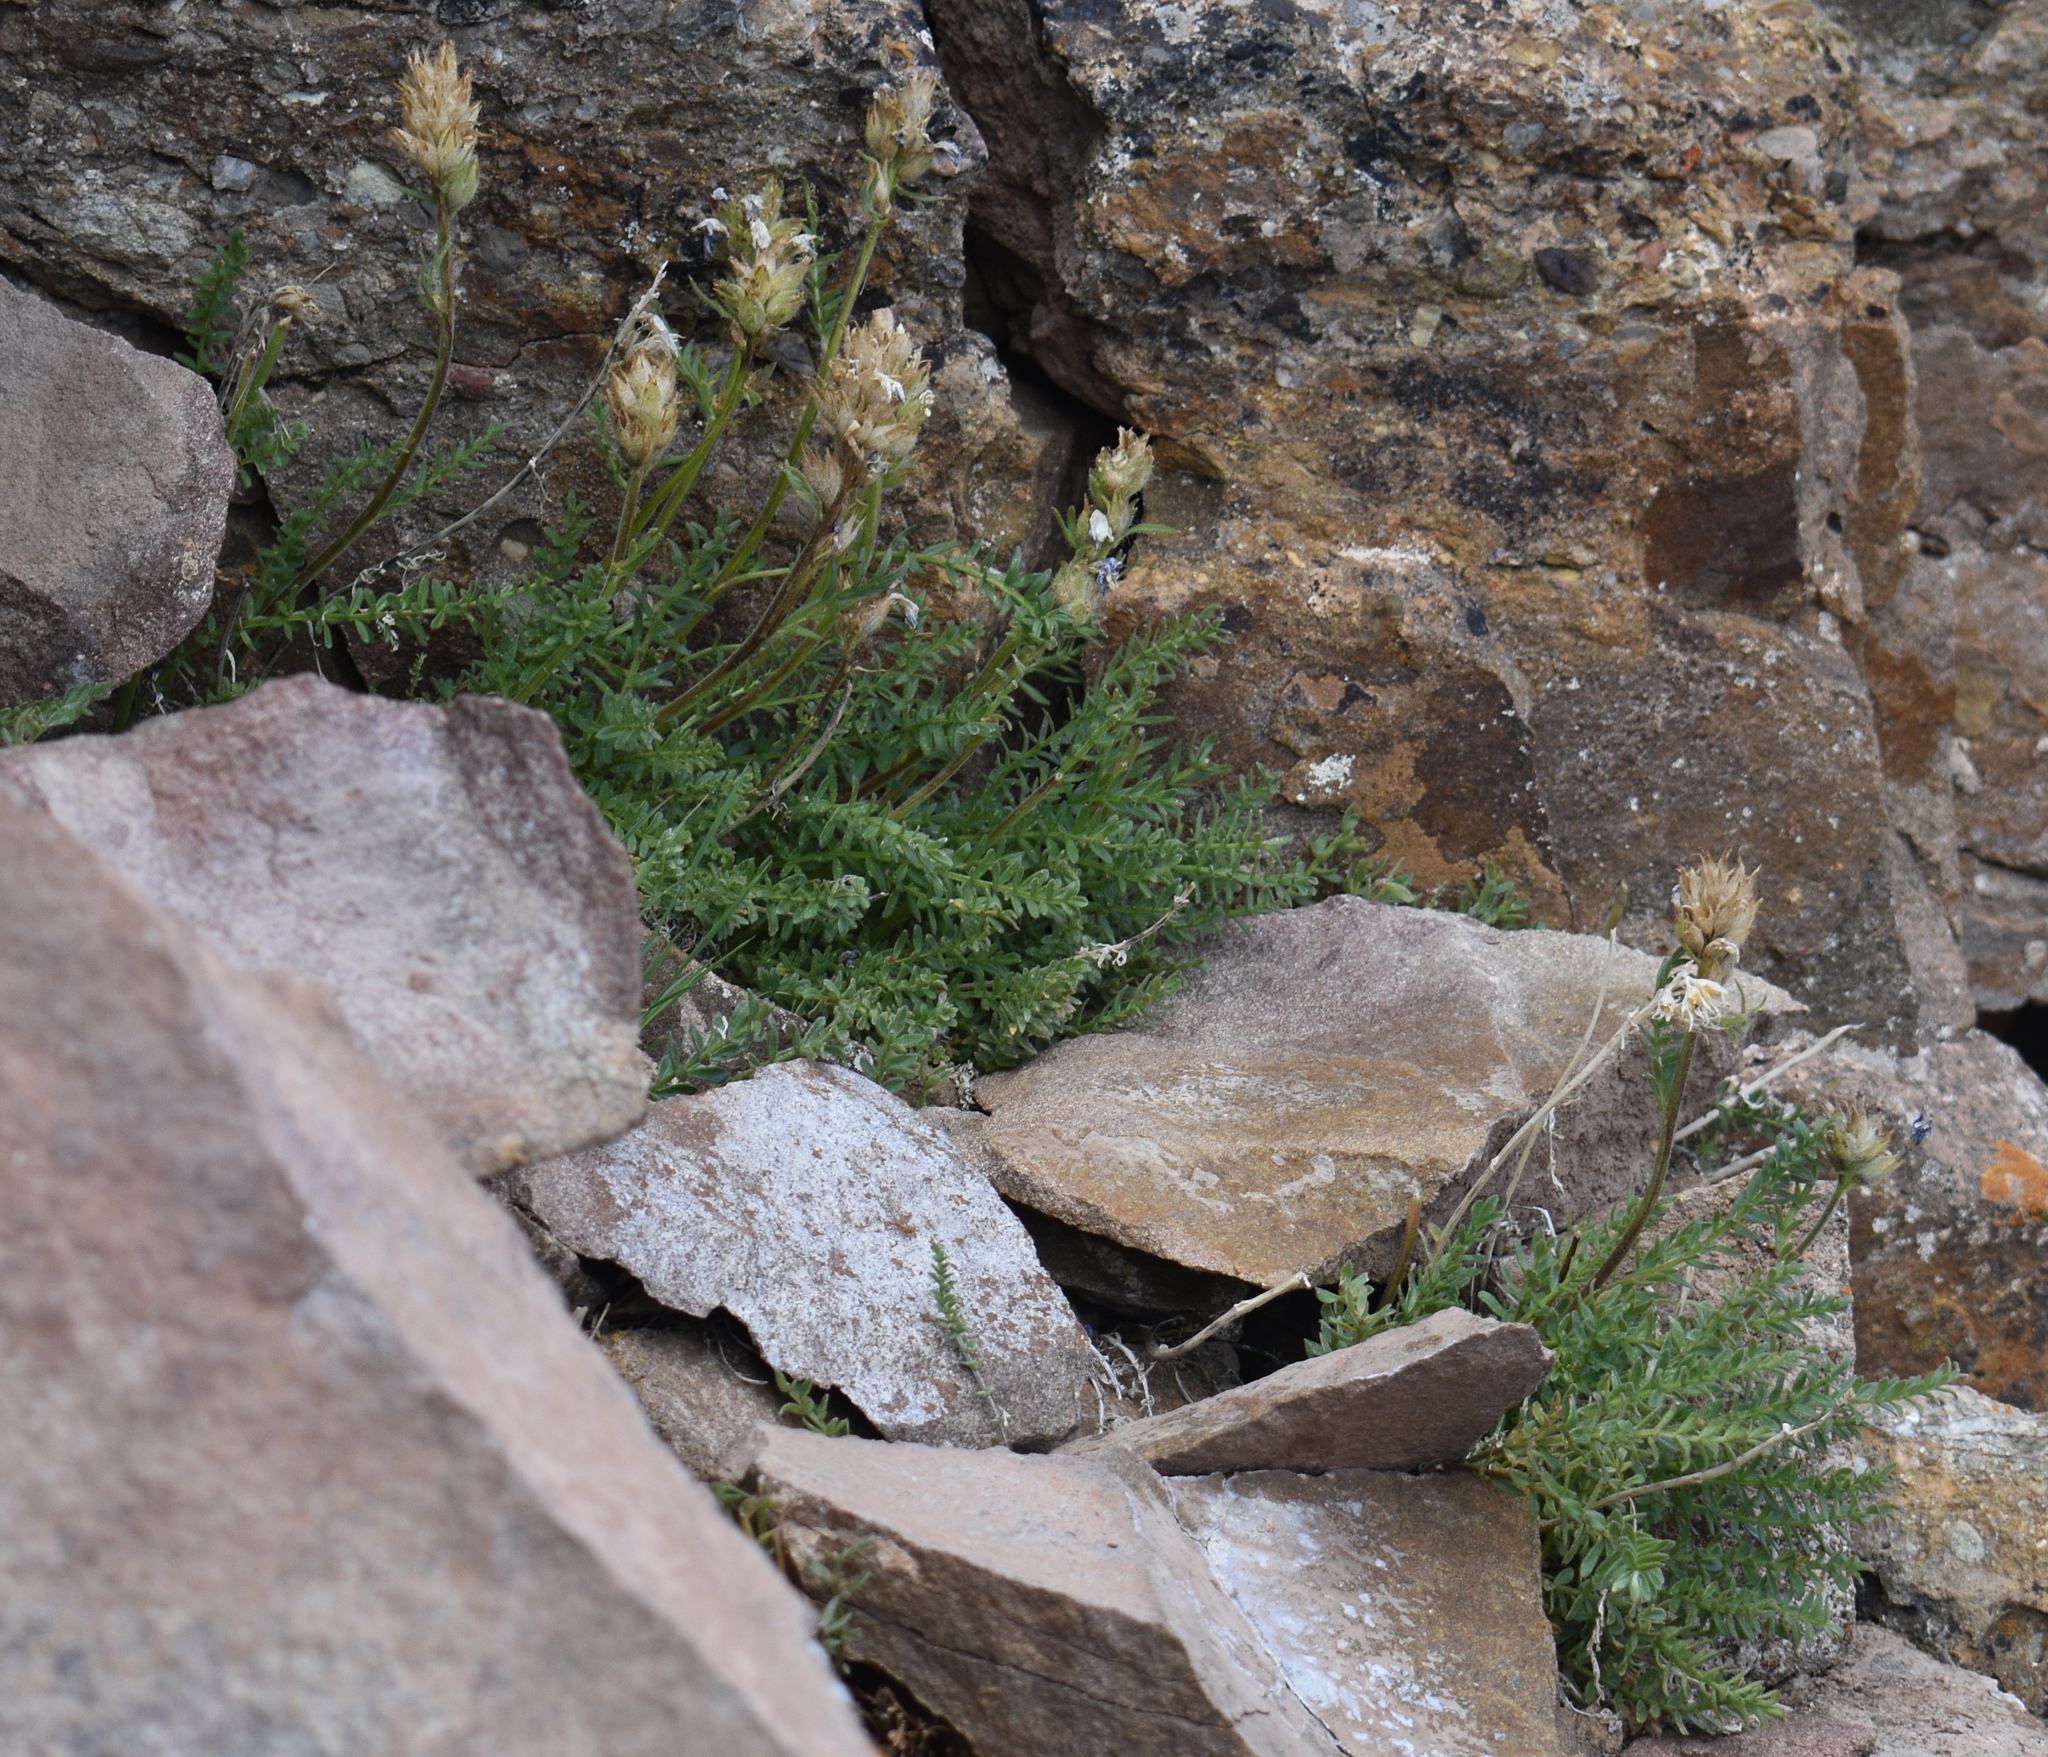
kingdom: Plantae
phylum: Tracheophyta
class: Magnoliopsida
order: Fabales
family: Fabaceae
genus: Oxytropis
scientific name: Oxytropis borealis
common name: Boreal locoweed
